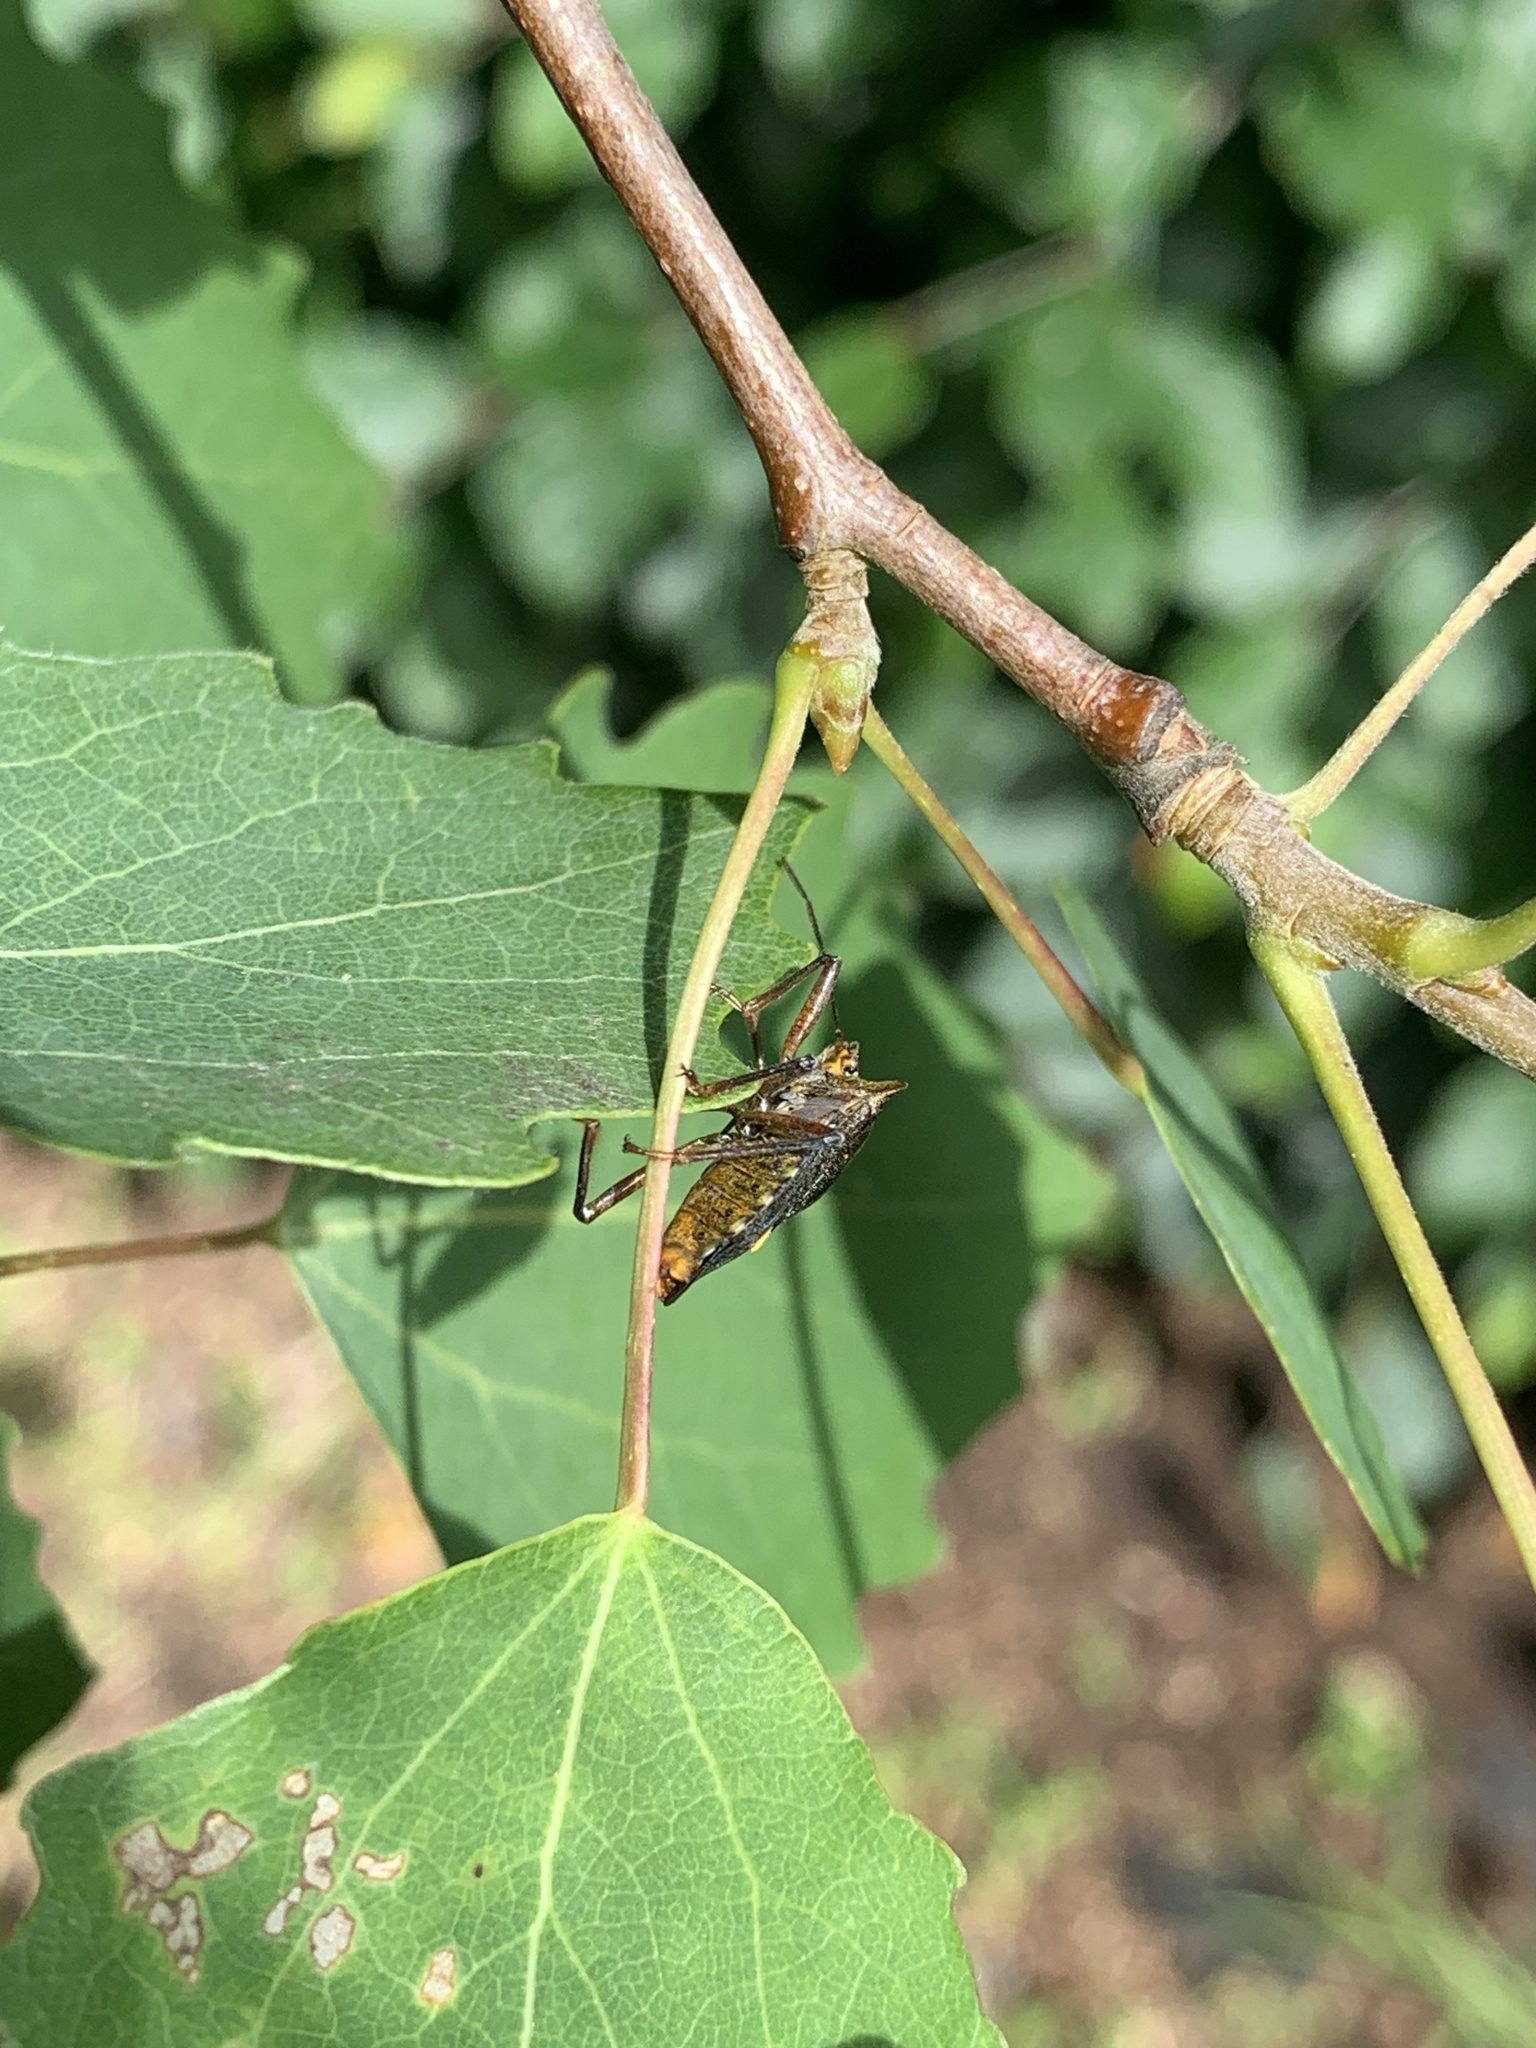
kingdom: Animalia
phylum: Arthropoda
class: Insecta
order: Hemiptera
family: Pentatomidae
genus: Pentatoma
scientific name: Pentatoma rufipes
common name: Forest bug
